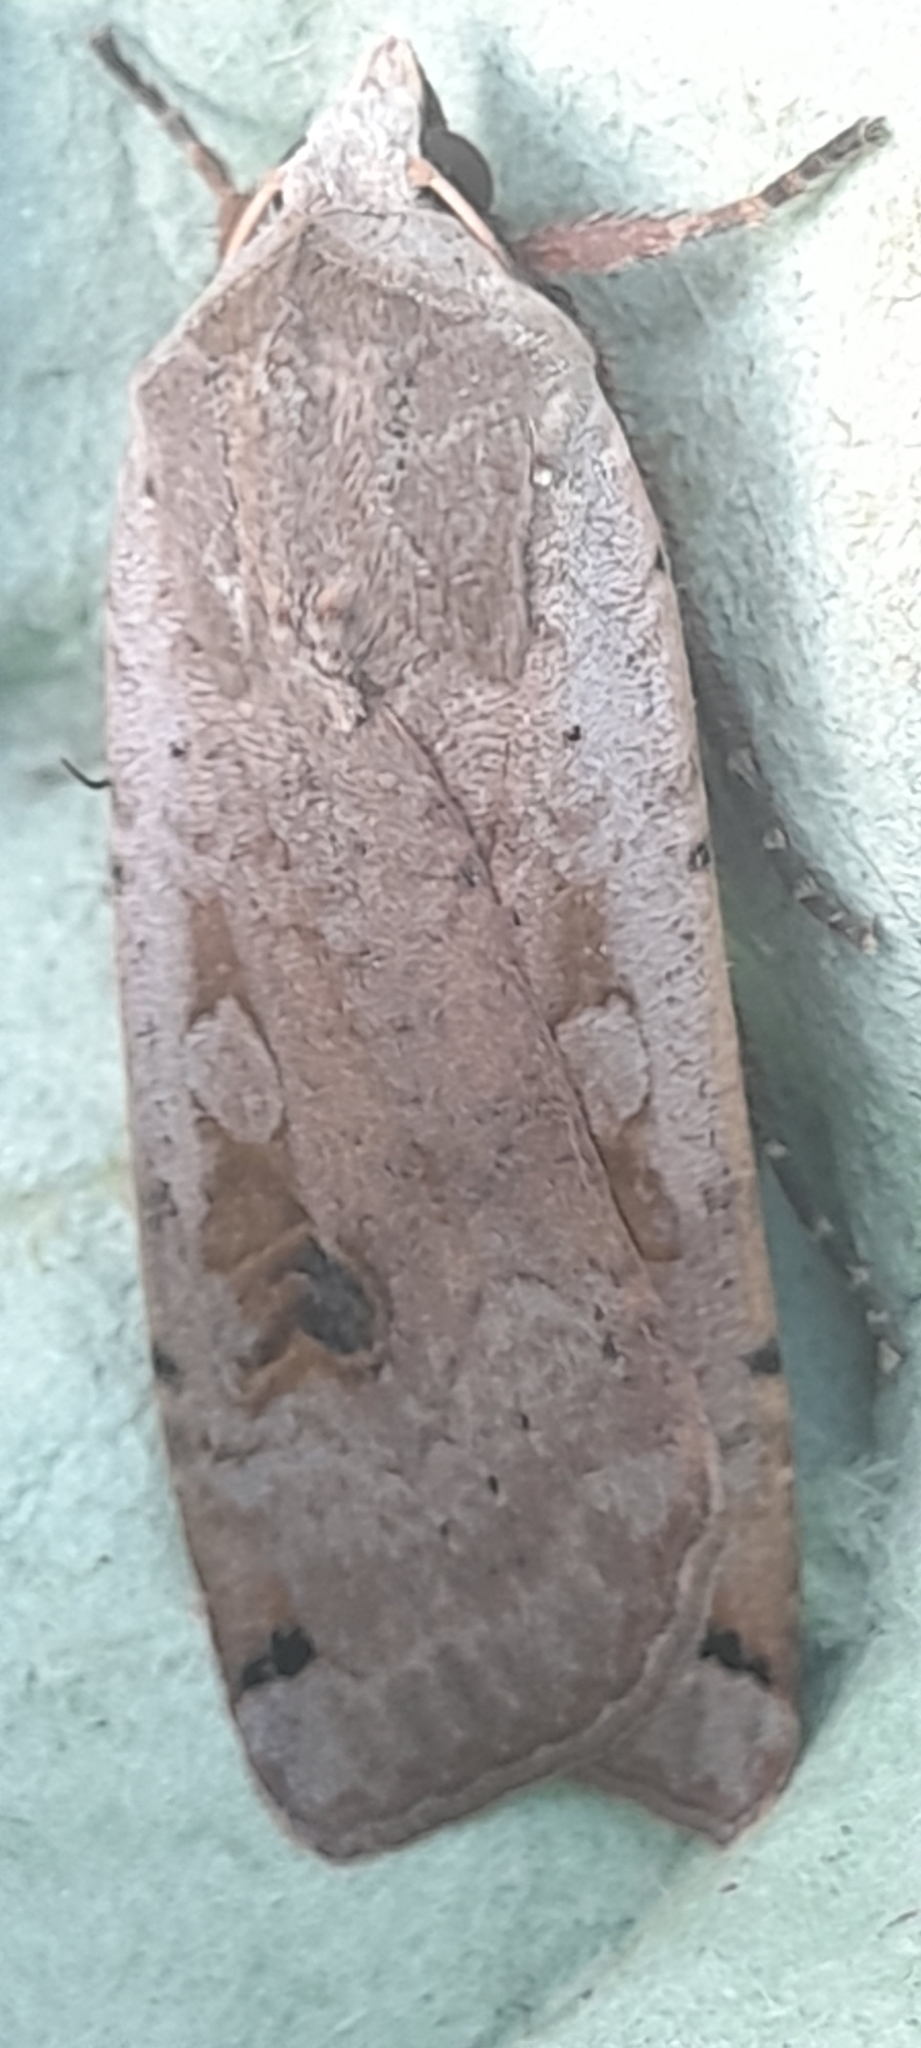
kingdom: Animalia
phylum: Arthropoda
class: Insecta
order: Lepidoptera
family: Noctuidae
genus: Noctua
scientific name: Noctua pronuba
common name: Large yellow underwing
